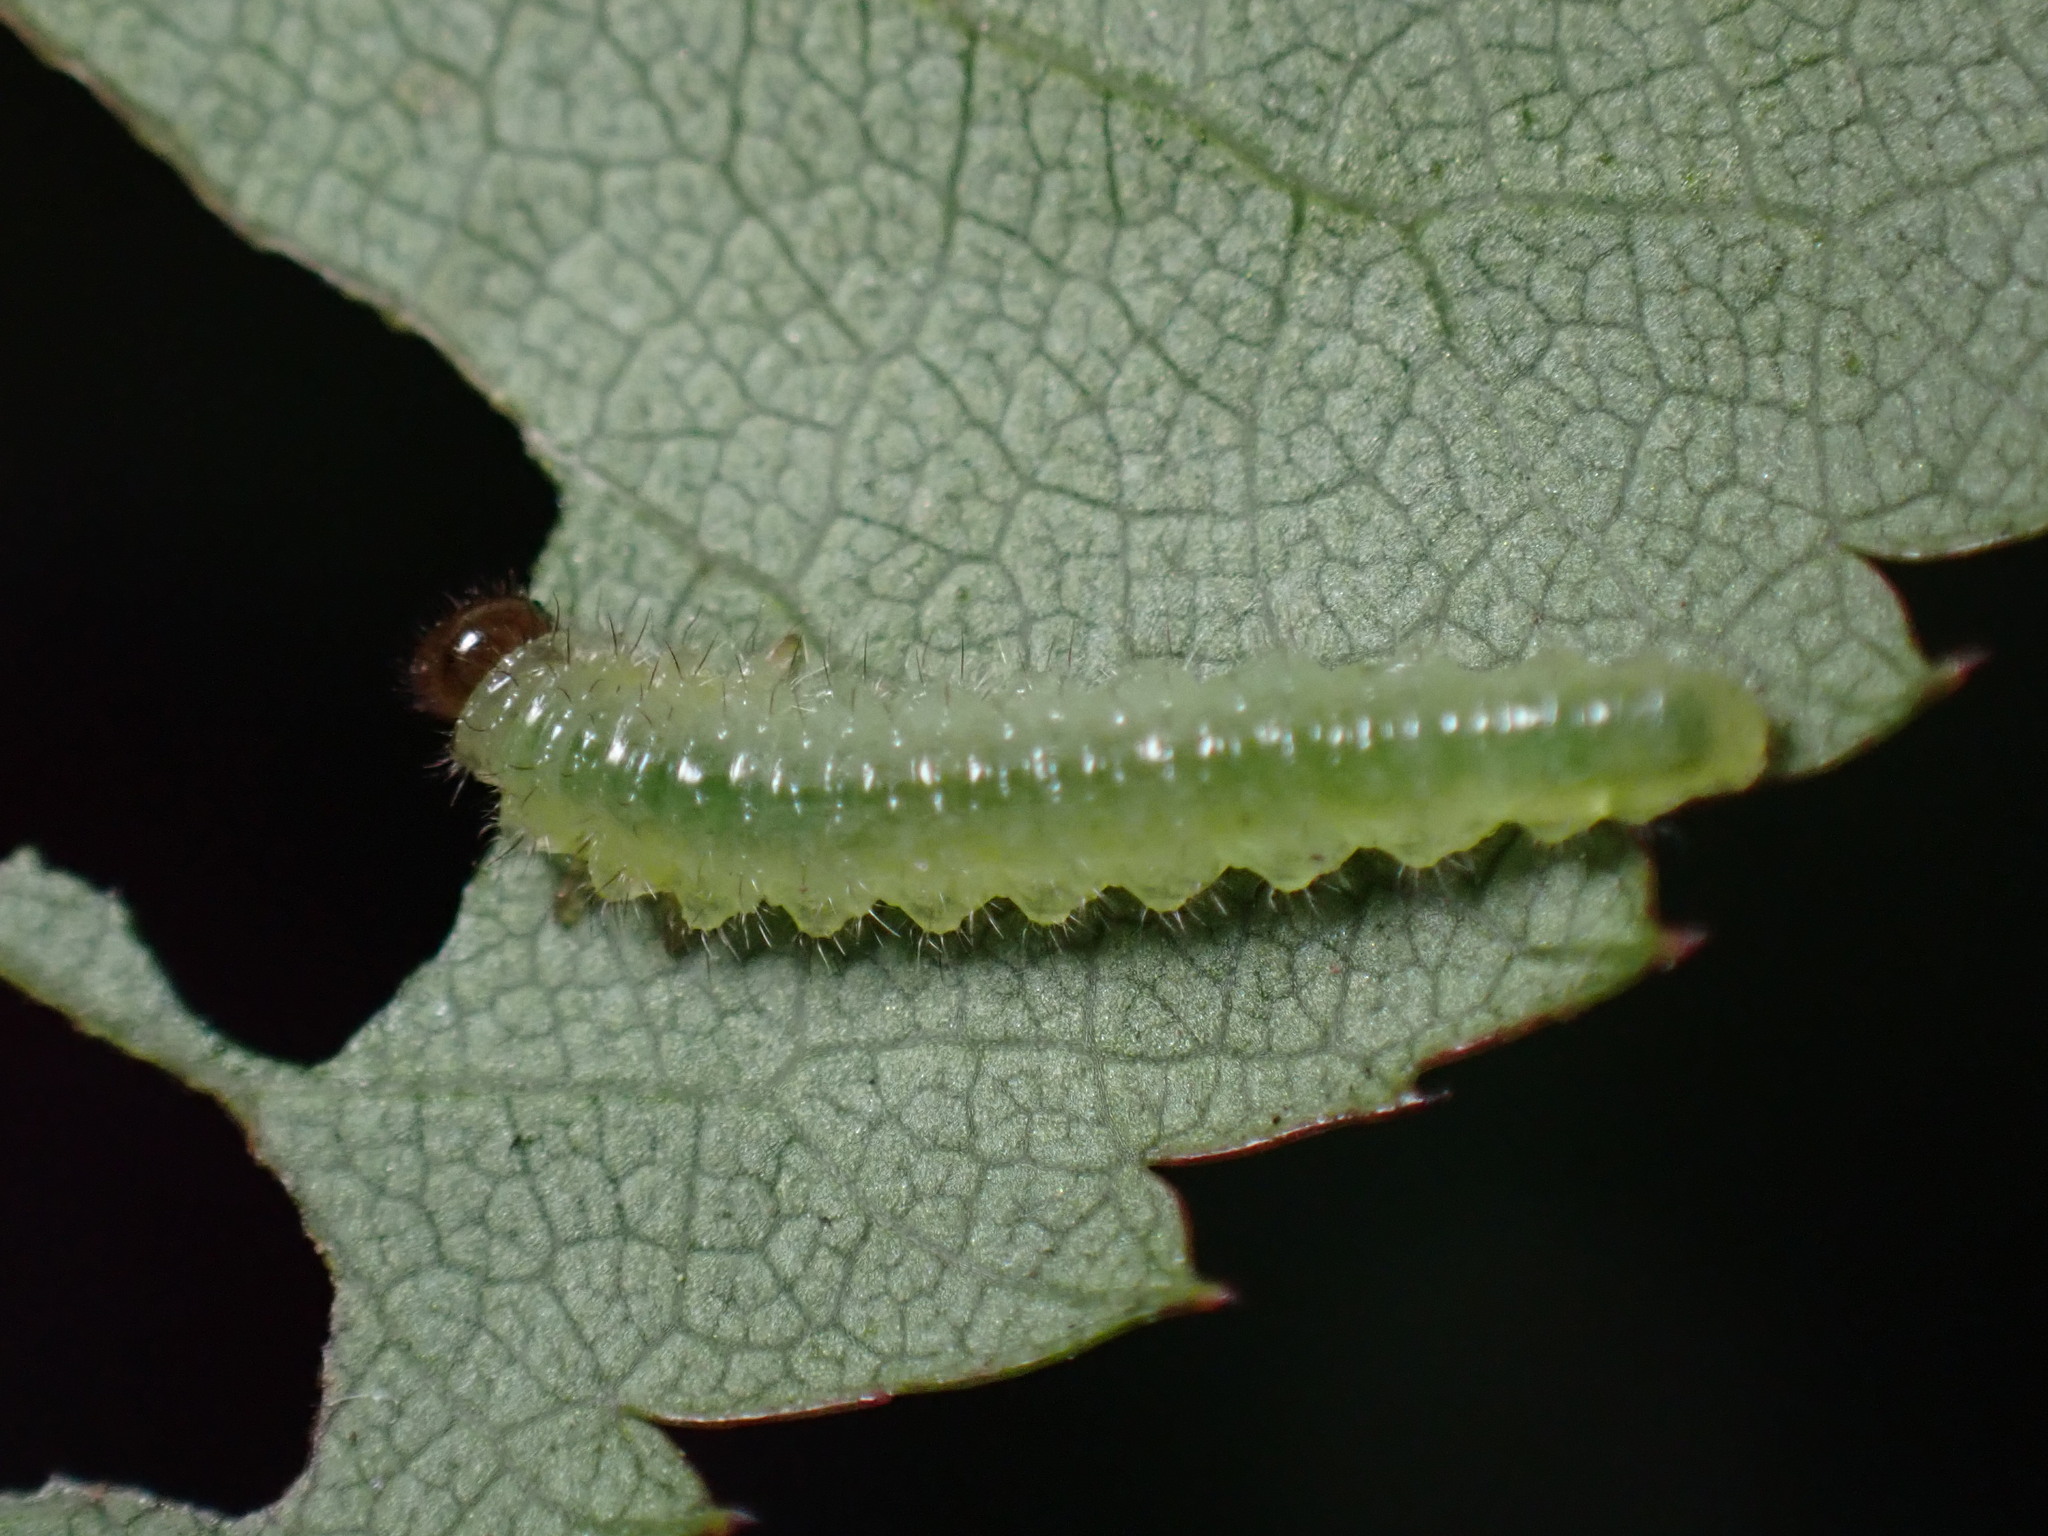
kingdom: Animalia
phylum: Arthropoda
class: Insecta
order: Hymenoptera
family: Tenthredinidae
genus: Cladius
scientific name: Cladius pectinicornis
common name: Sawfly
